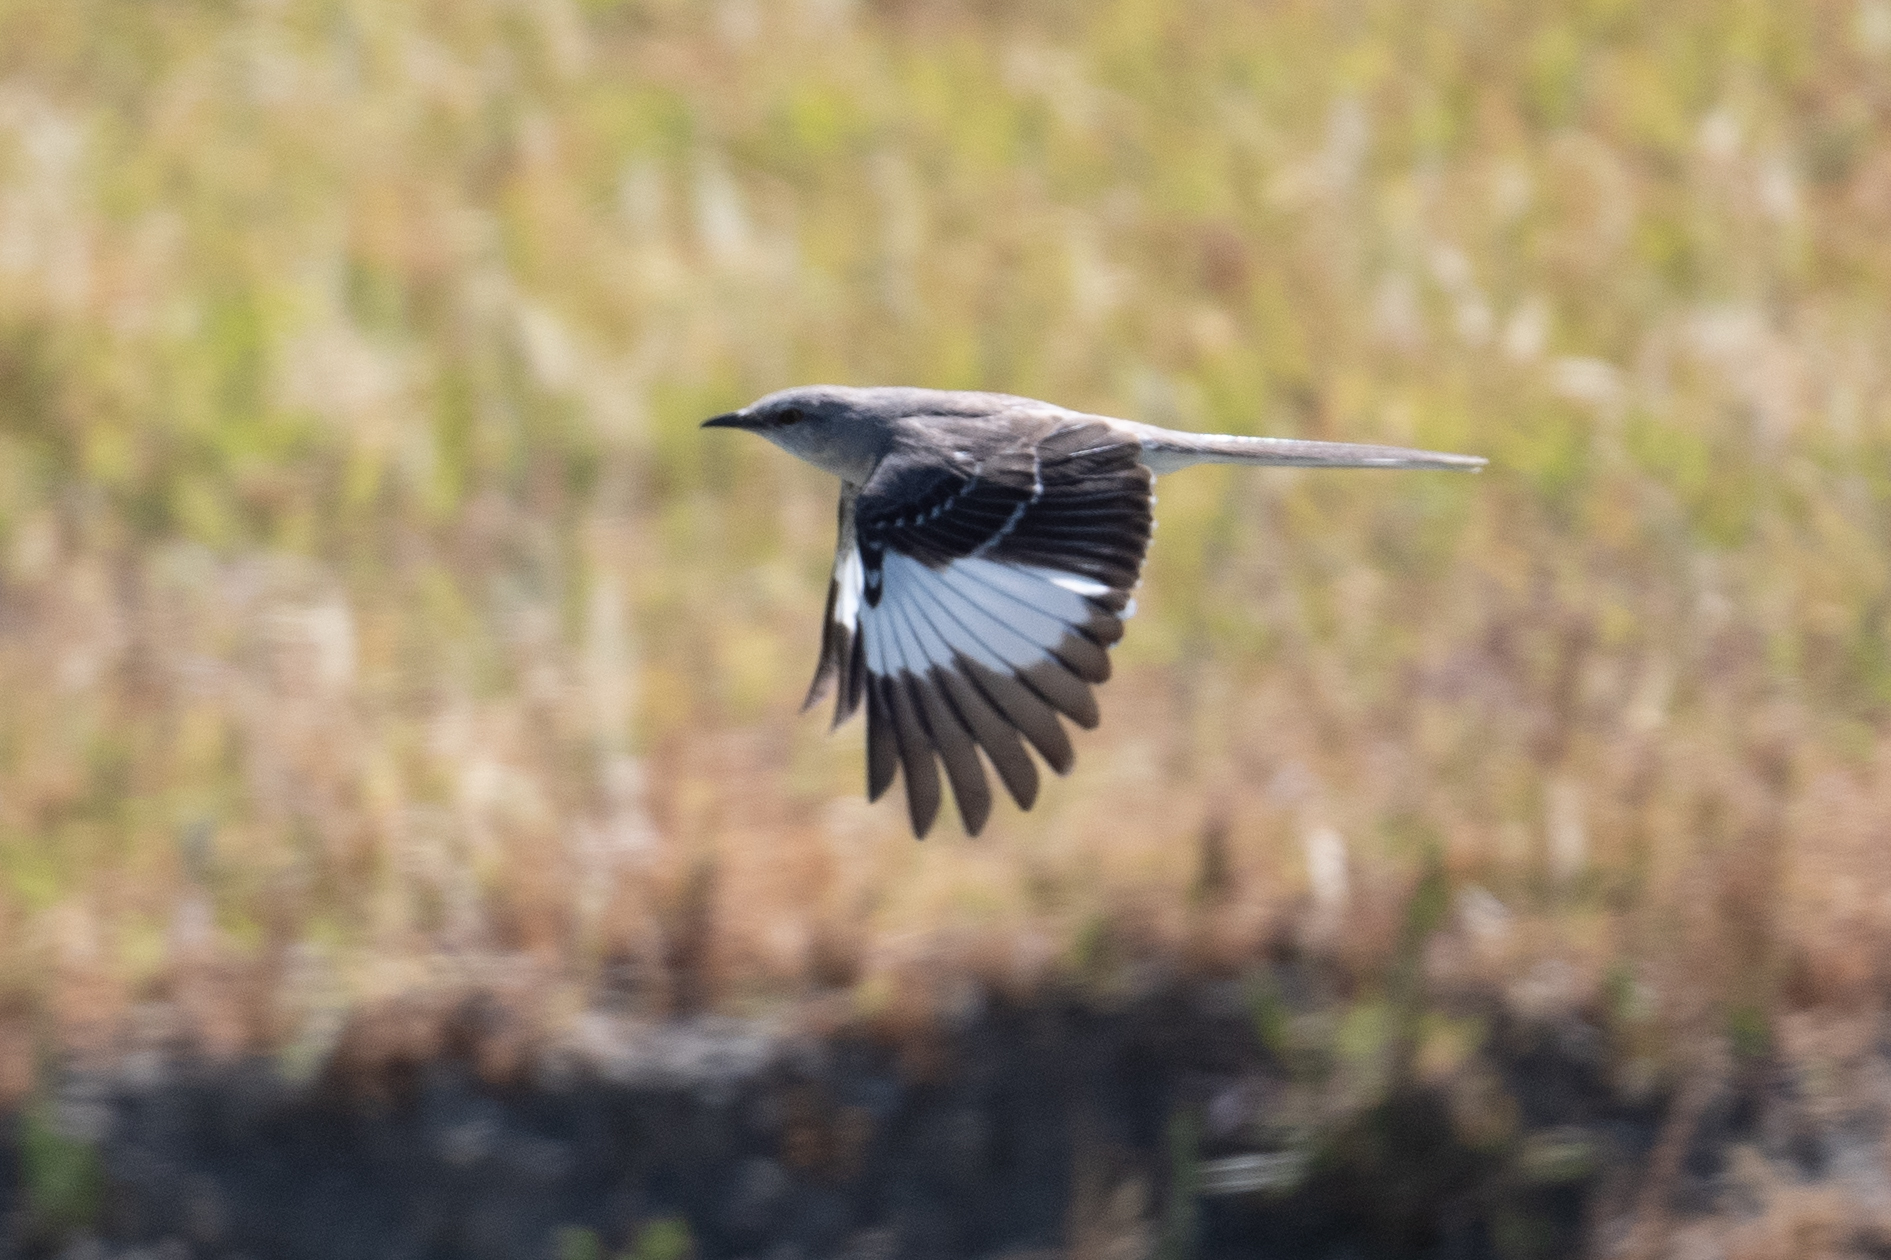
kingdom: Animalia
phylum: Chordata
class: Aves
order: Passeriformes
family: Mimidae
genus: Mimus
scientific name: Mimus polyglottos
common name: Northern mockingbird
